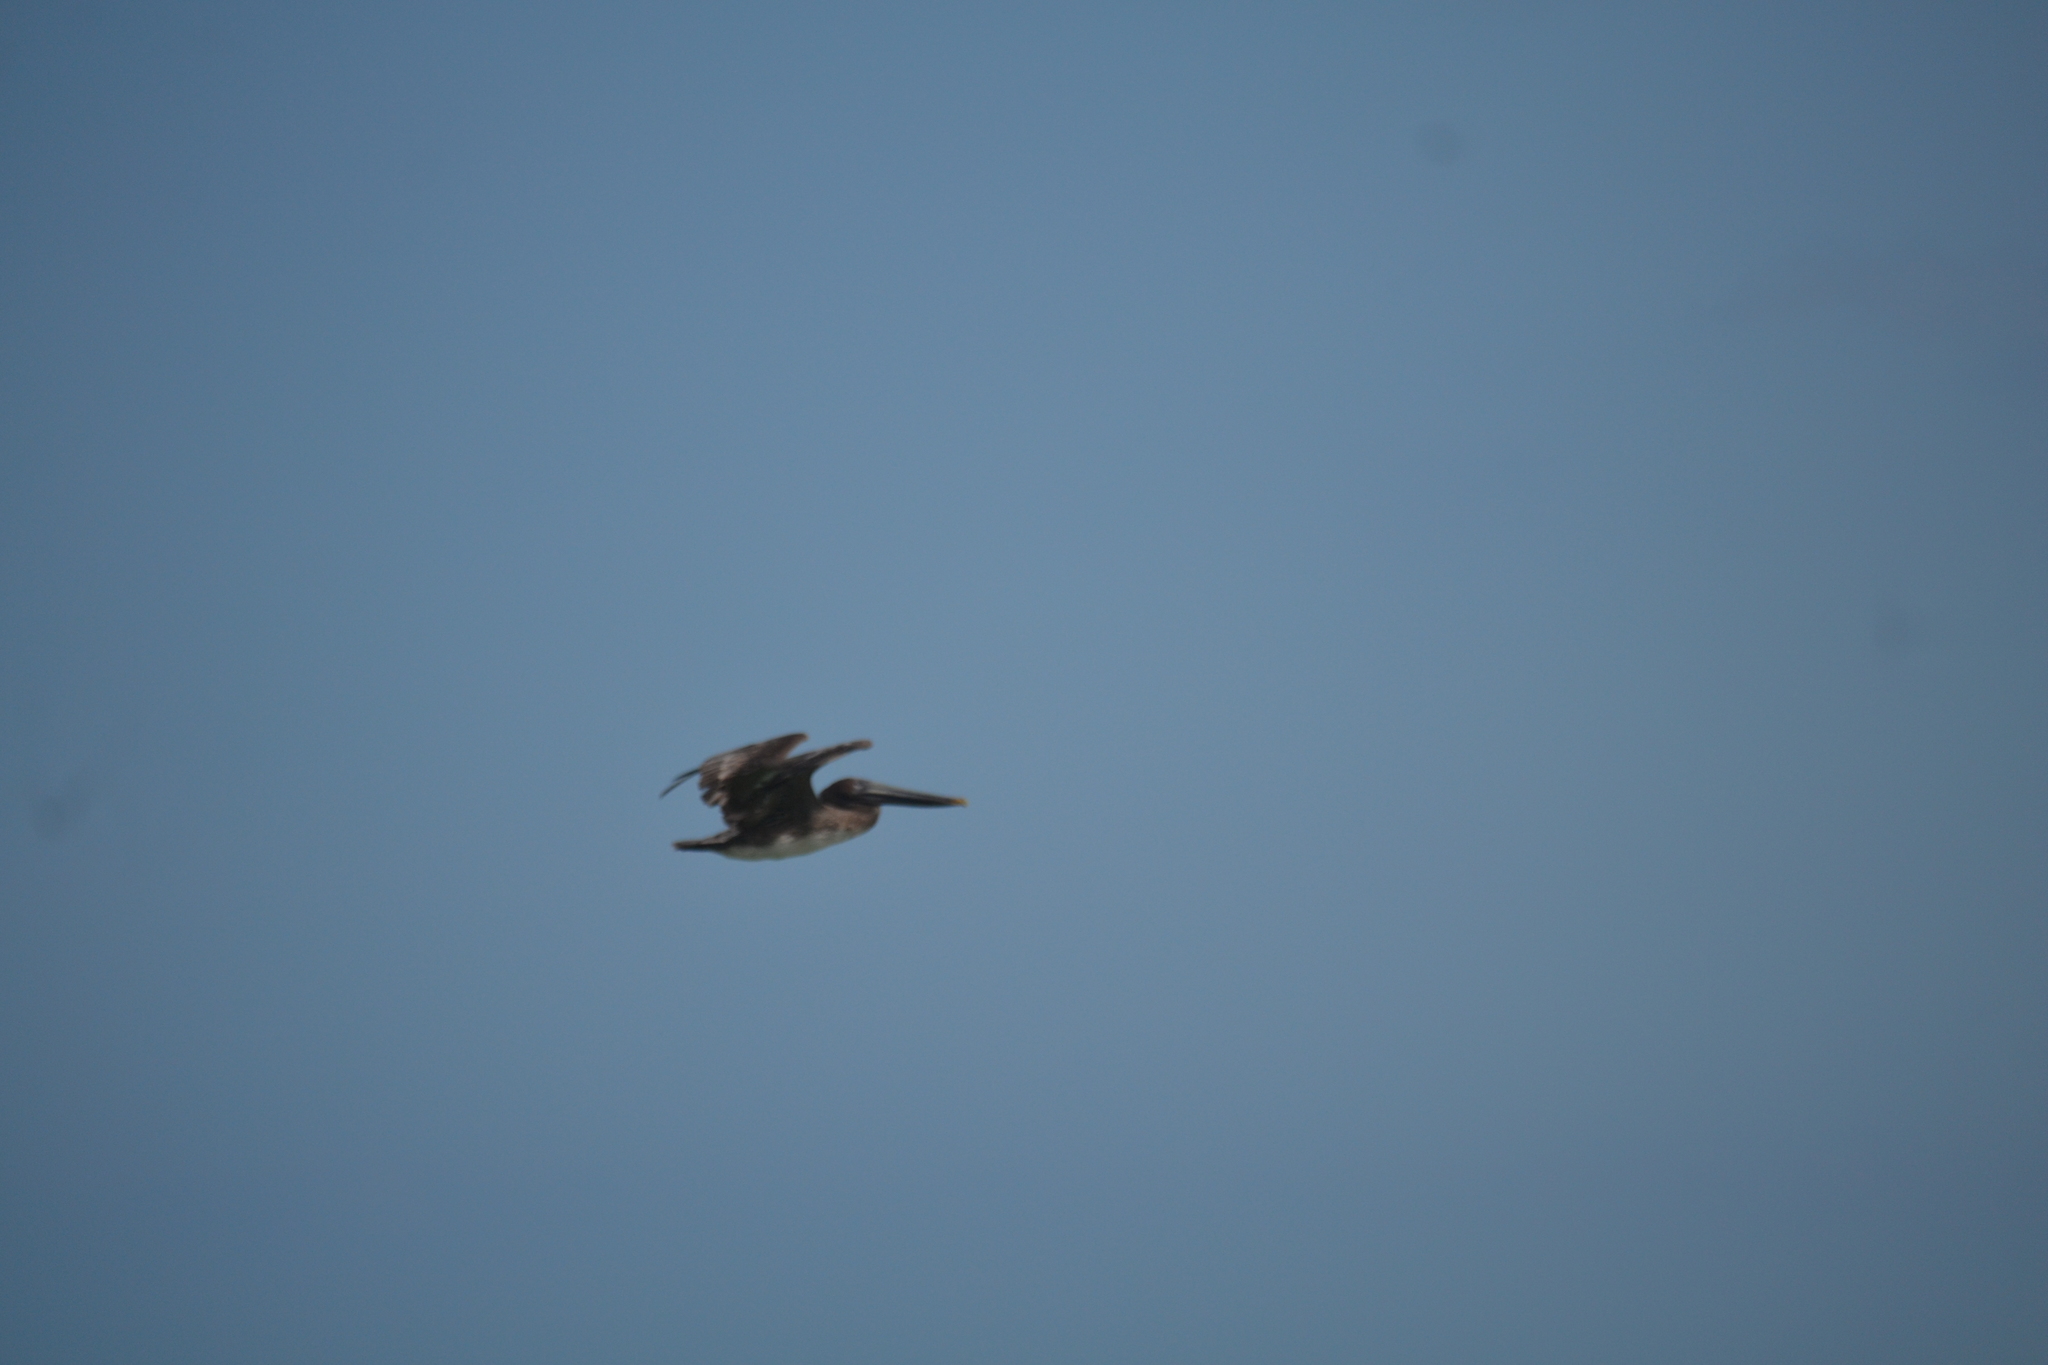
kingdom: Animalia
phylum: Chordata
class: Aves
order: Pelecaniformes
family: Pelecanidae
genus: Pelecanus
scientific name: Pelecanus occidentalis
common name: Brown pelican
